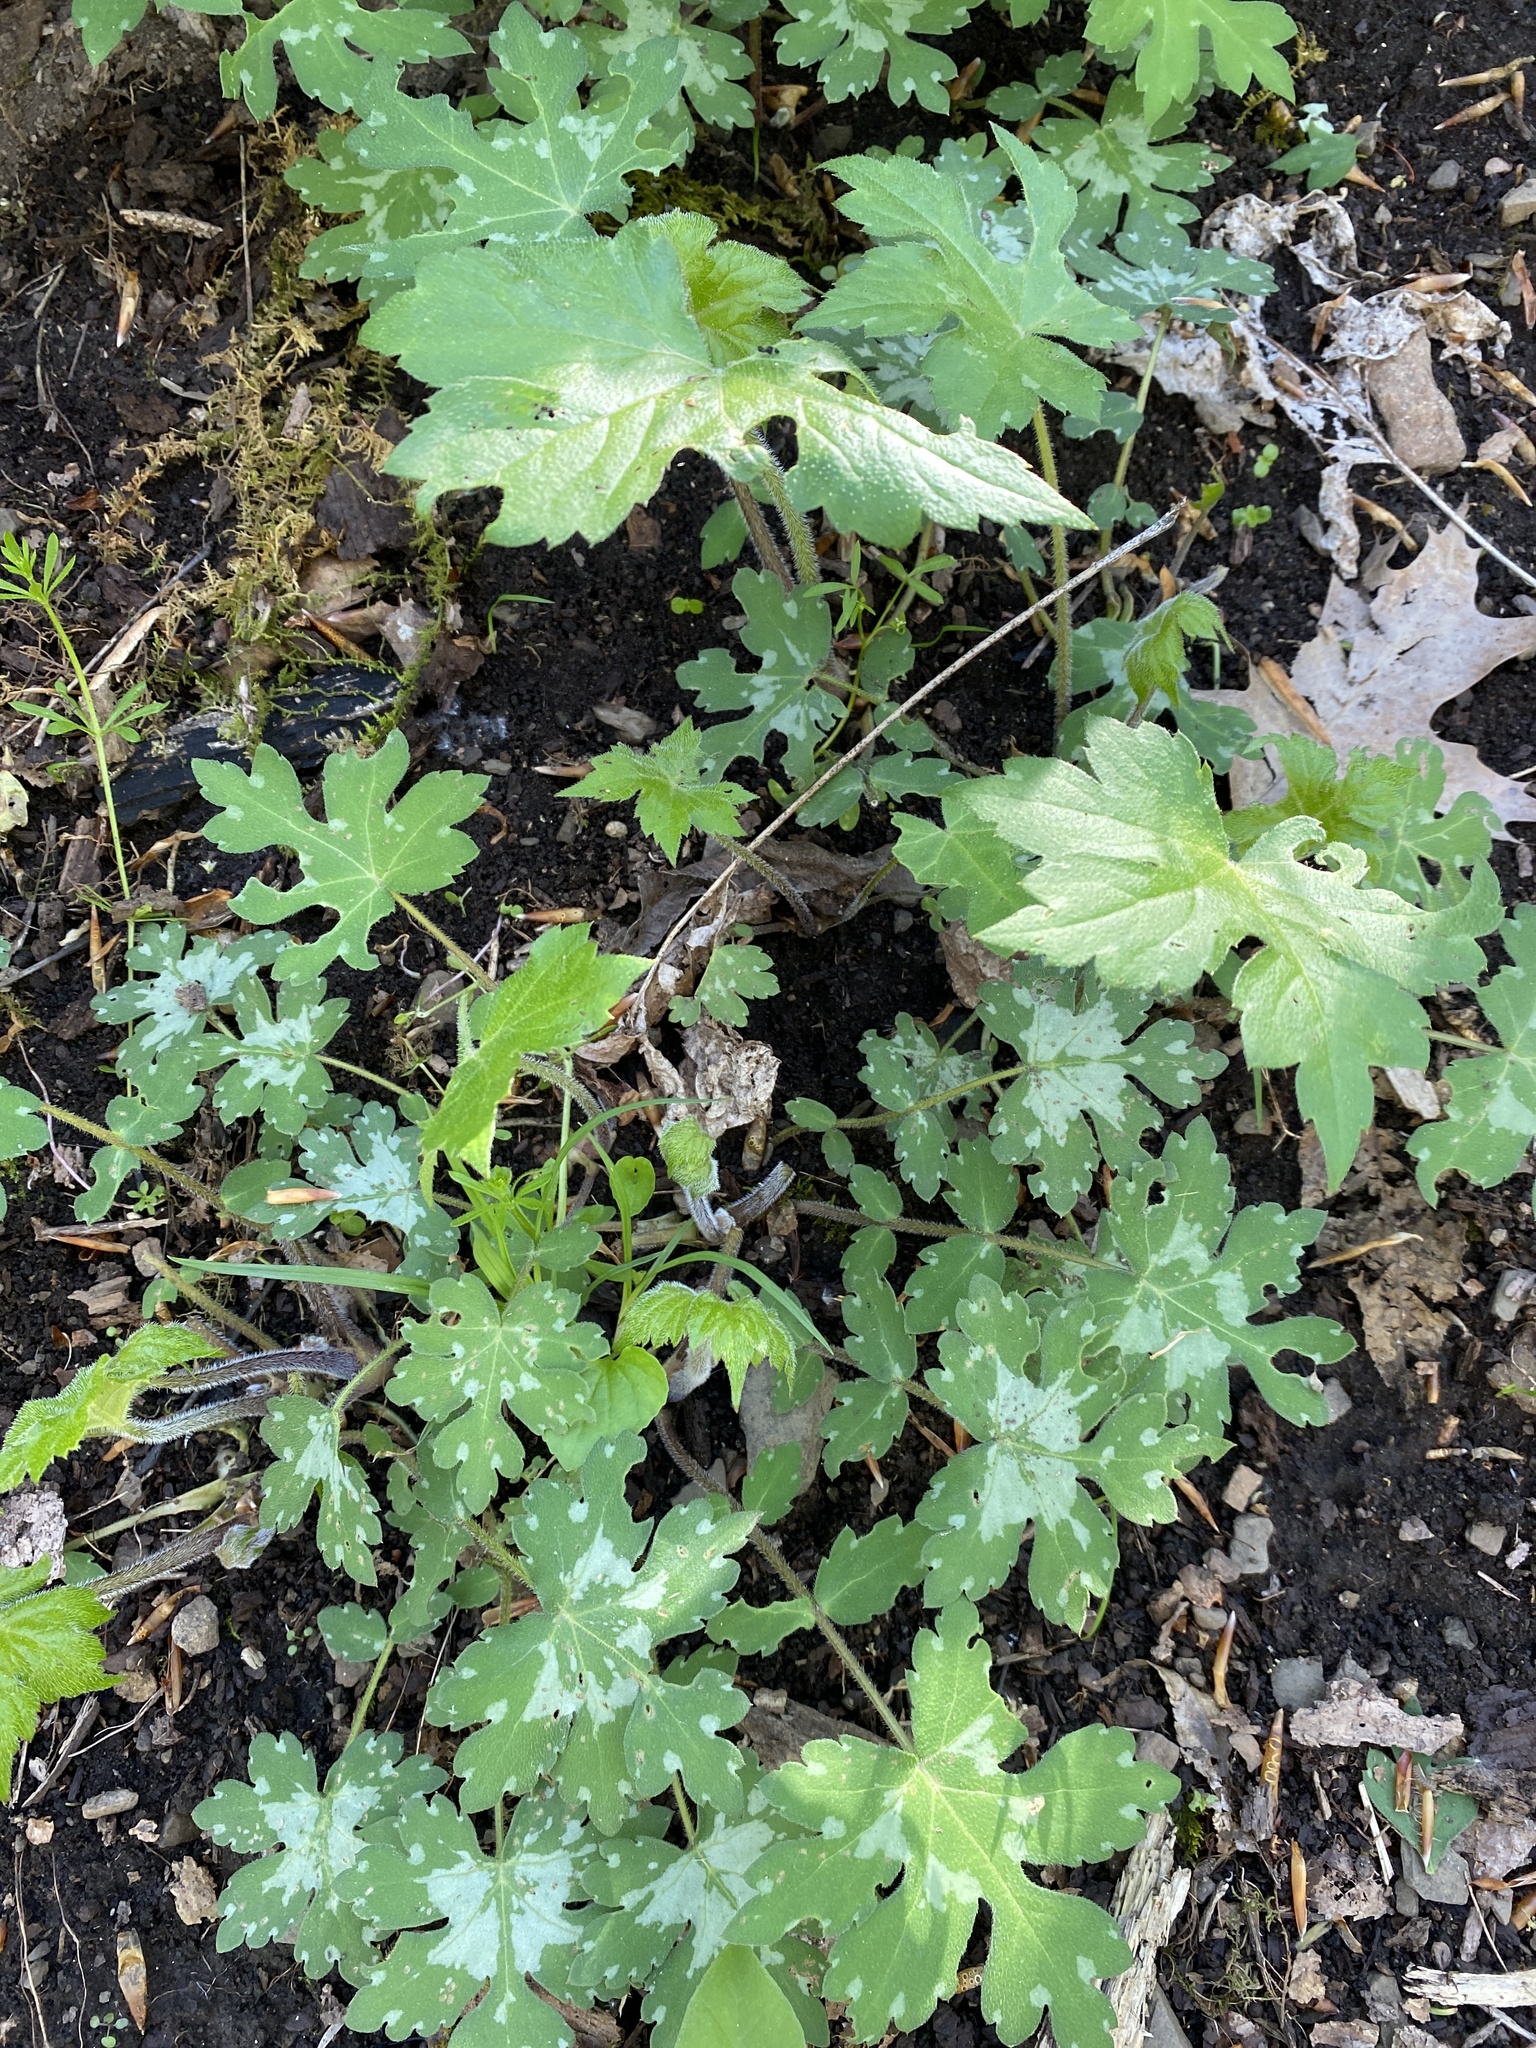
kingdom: Plantae
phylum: Tracheophyta
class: Magnoliopsida
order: Boraginales
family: Hydrophyllaceae
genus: Hydrophyllum
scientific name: Hydrophyllum canadense
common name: Canada waterleaf
